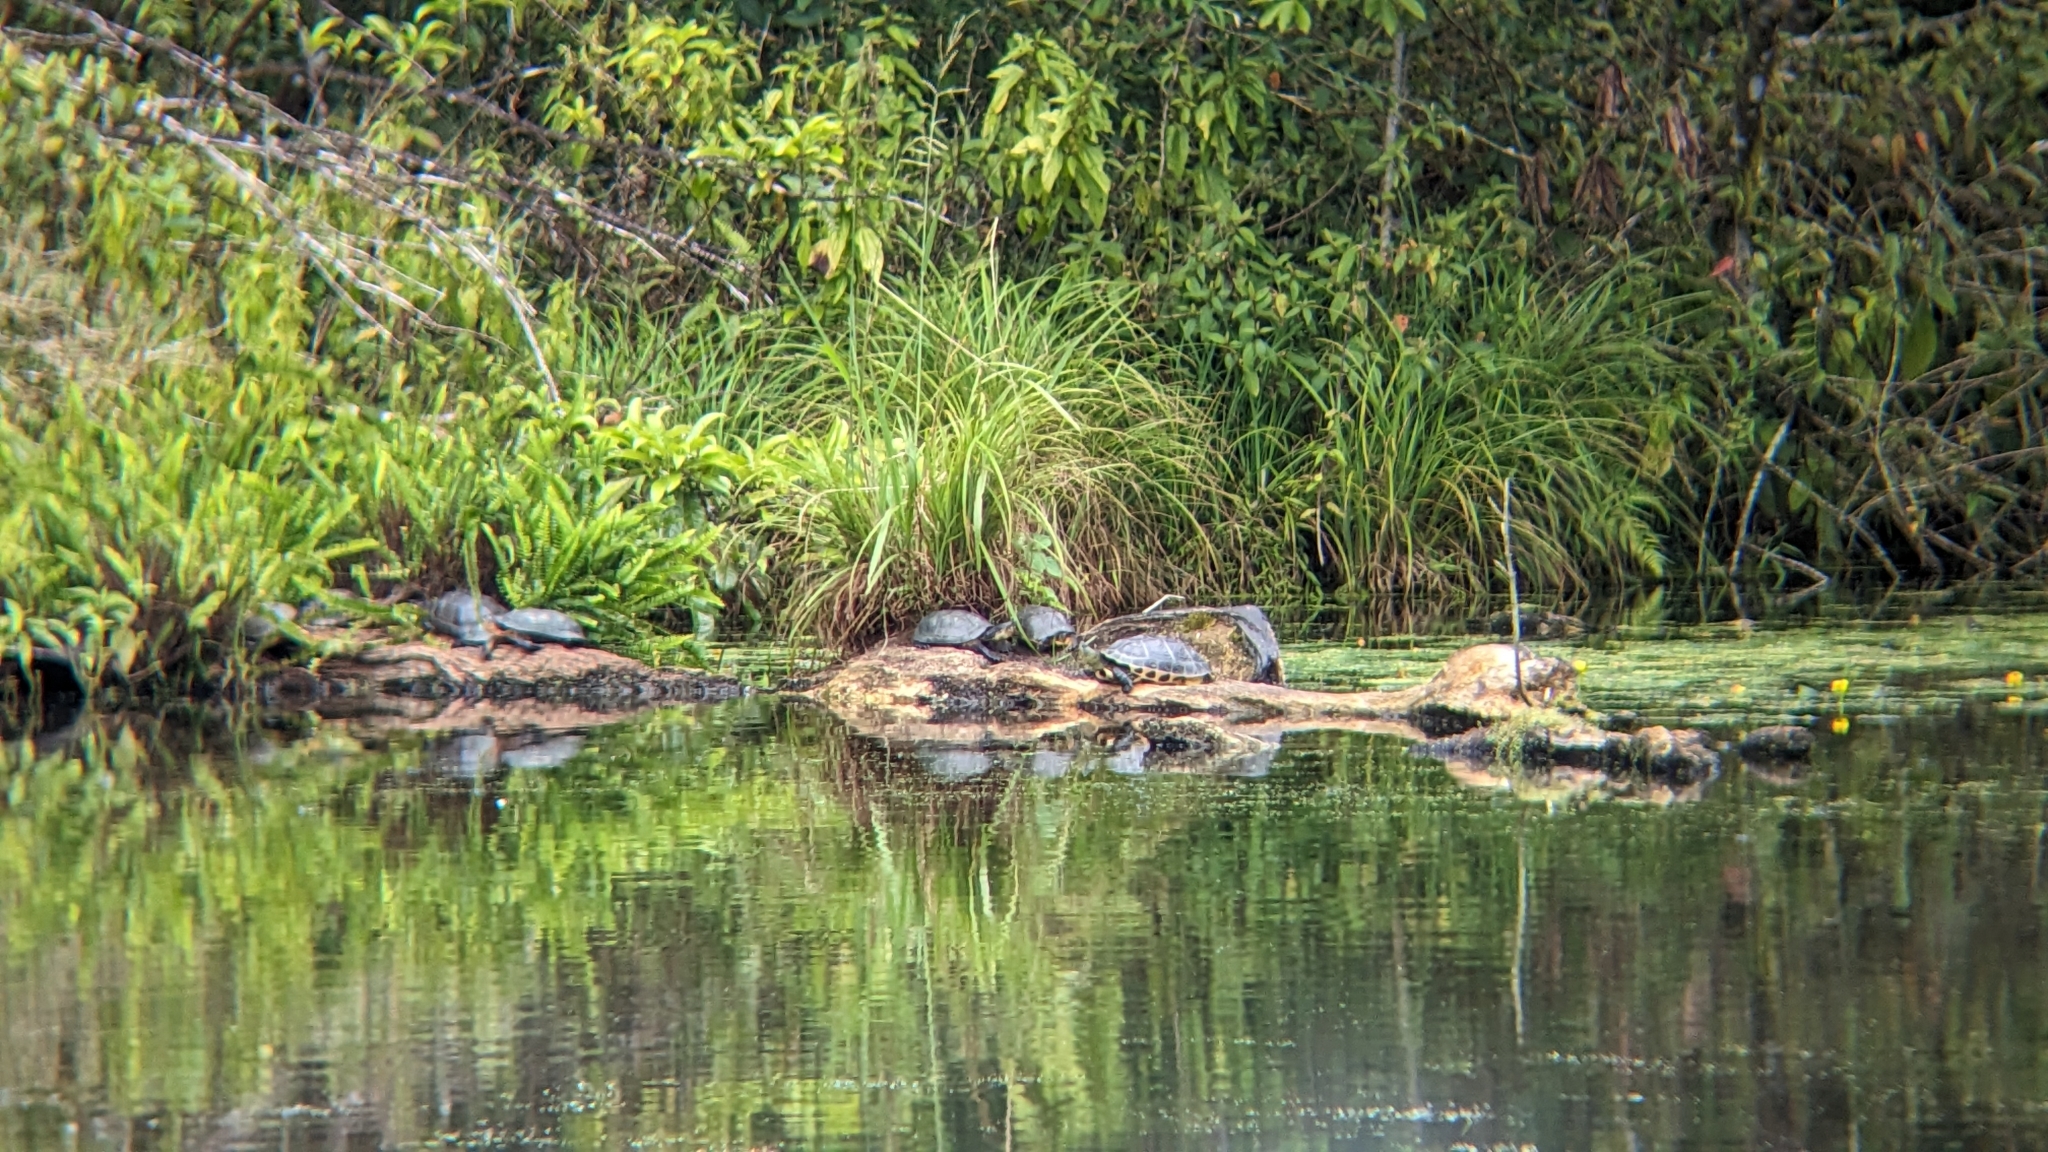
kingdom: Animalia
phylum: Chordata
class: Testudines
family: Geoemydidae
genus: Mauremys
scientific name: Mauremys sinensis
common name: Chinese stripe-necked turtle
